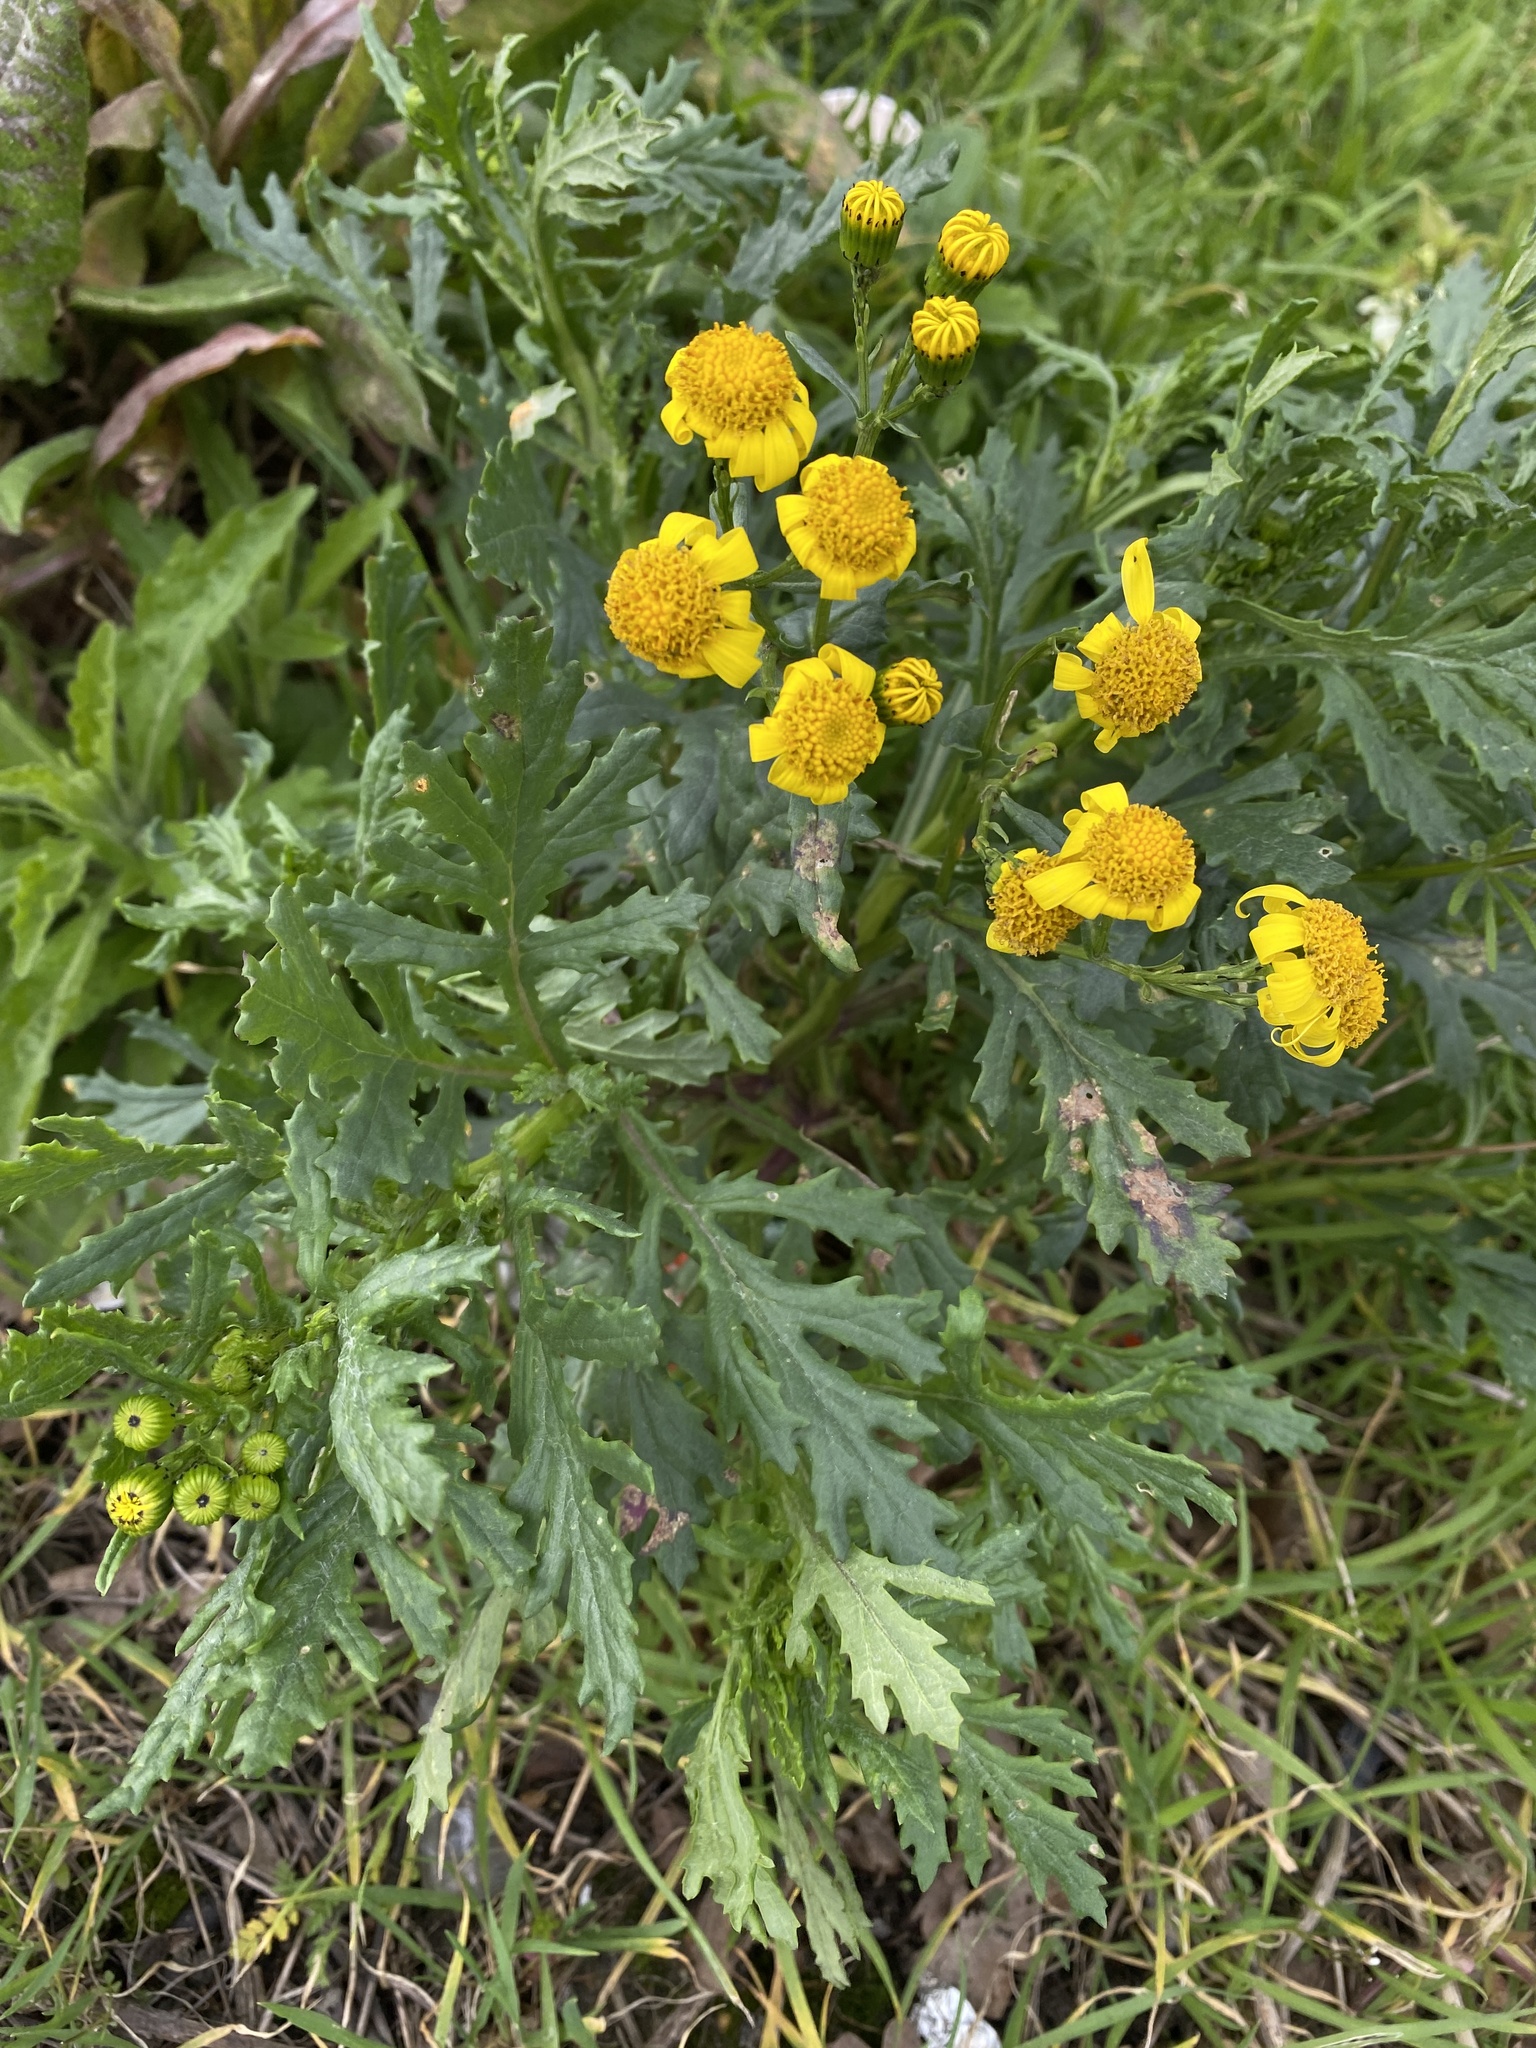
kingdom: Plantae
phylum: Tracheophyta
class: Magnoliopsida
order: Asterales
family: Asteraceae
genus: Senecio
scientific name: Senecio squalidus
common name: Oxford ragwort
